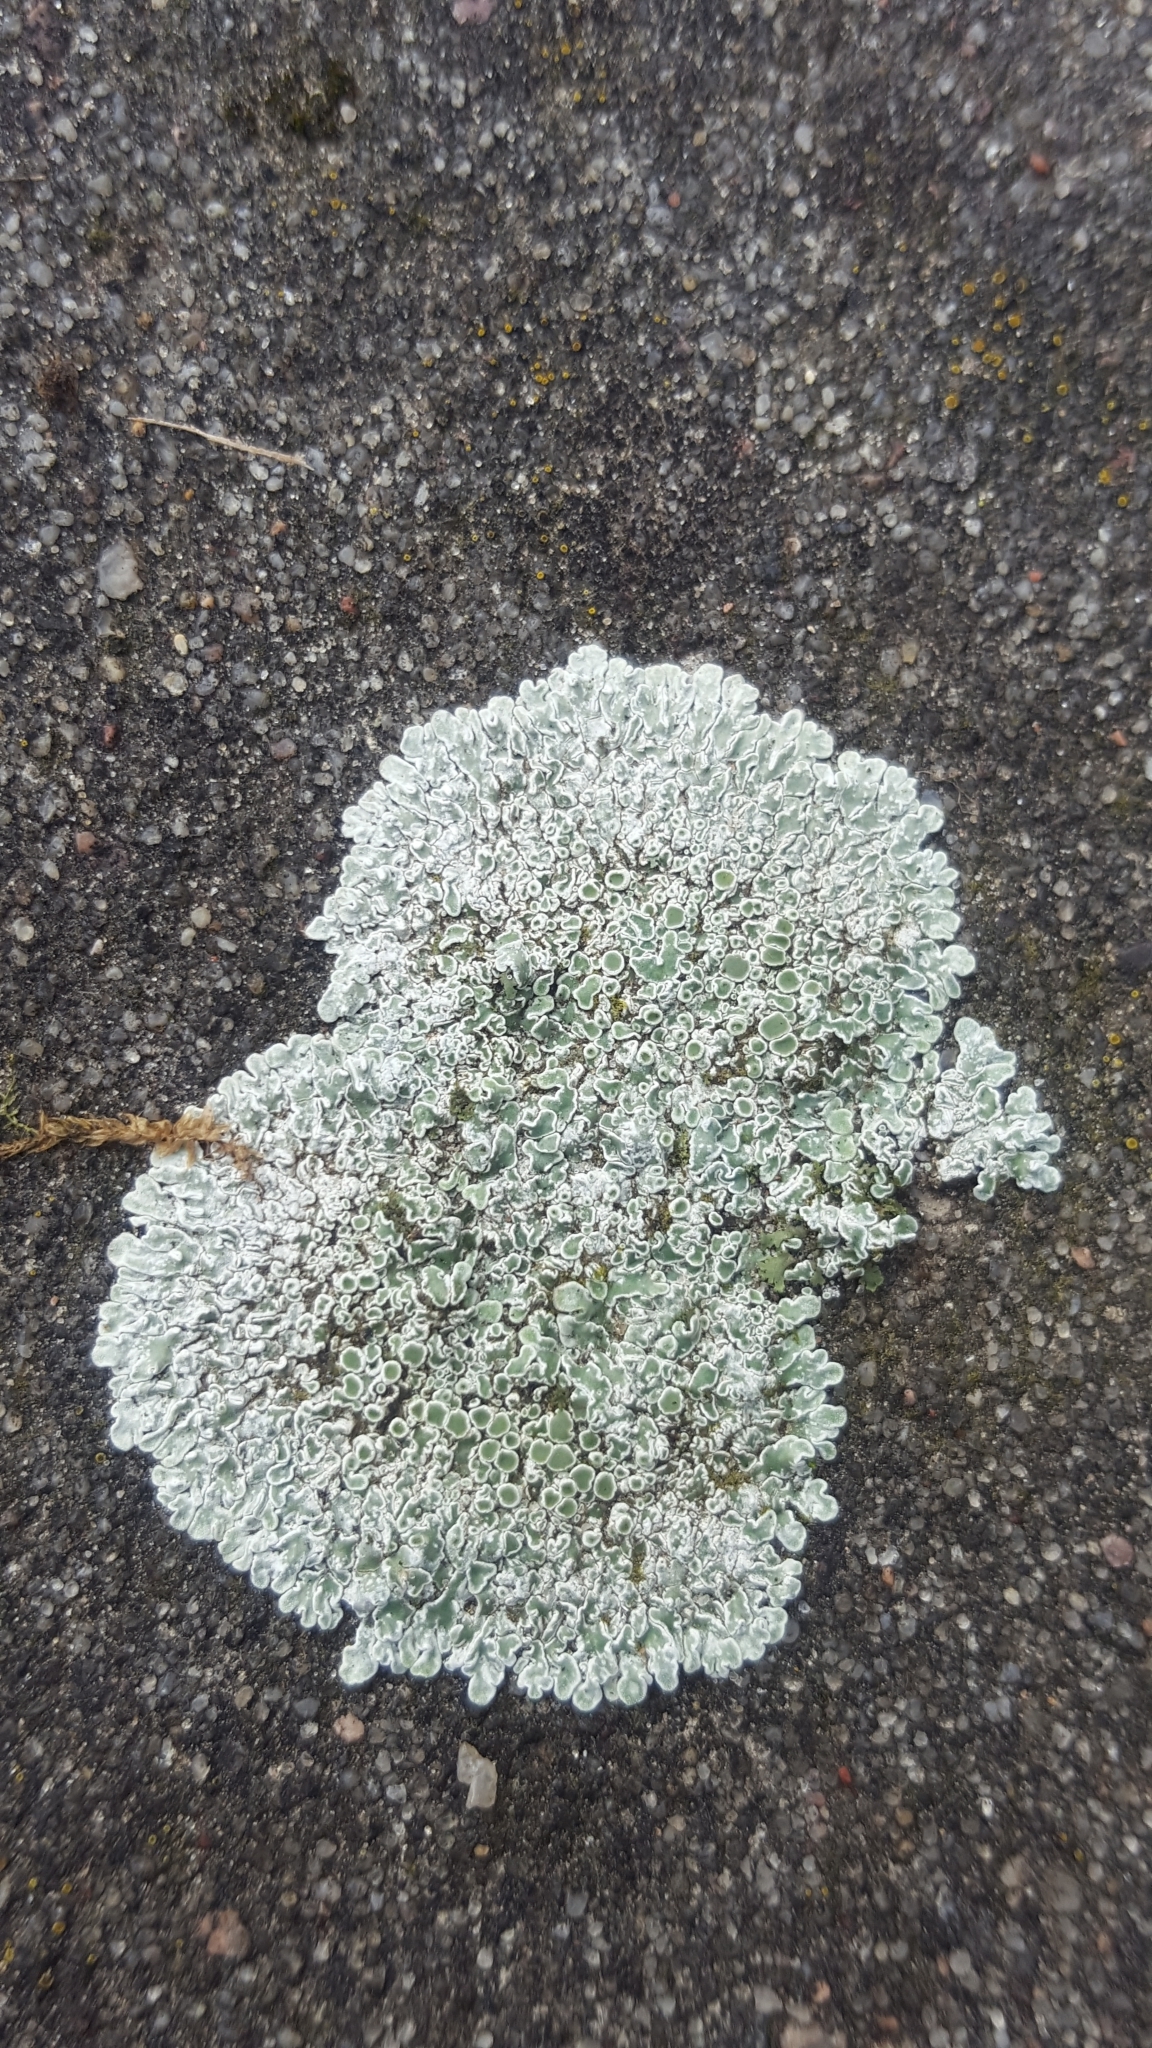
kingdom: Fungi
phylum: Ascomycota
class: Lecanoromycetes
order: Lecanorales
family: Lecanoraceae
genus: Protoparmeliopsis
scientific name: Protoparmeliopsis muralis
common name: Stonewall rim lichen
